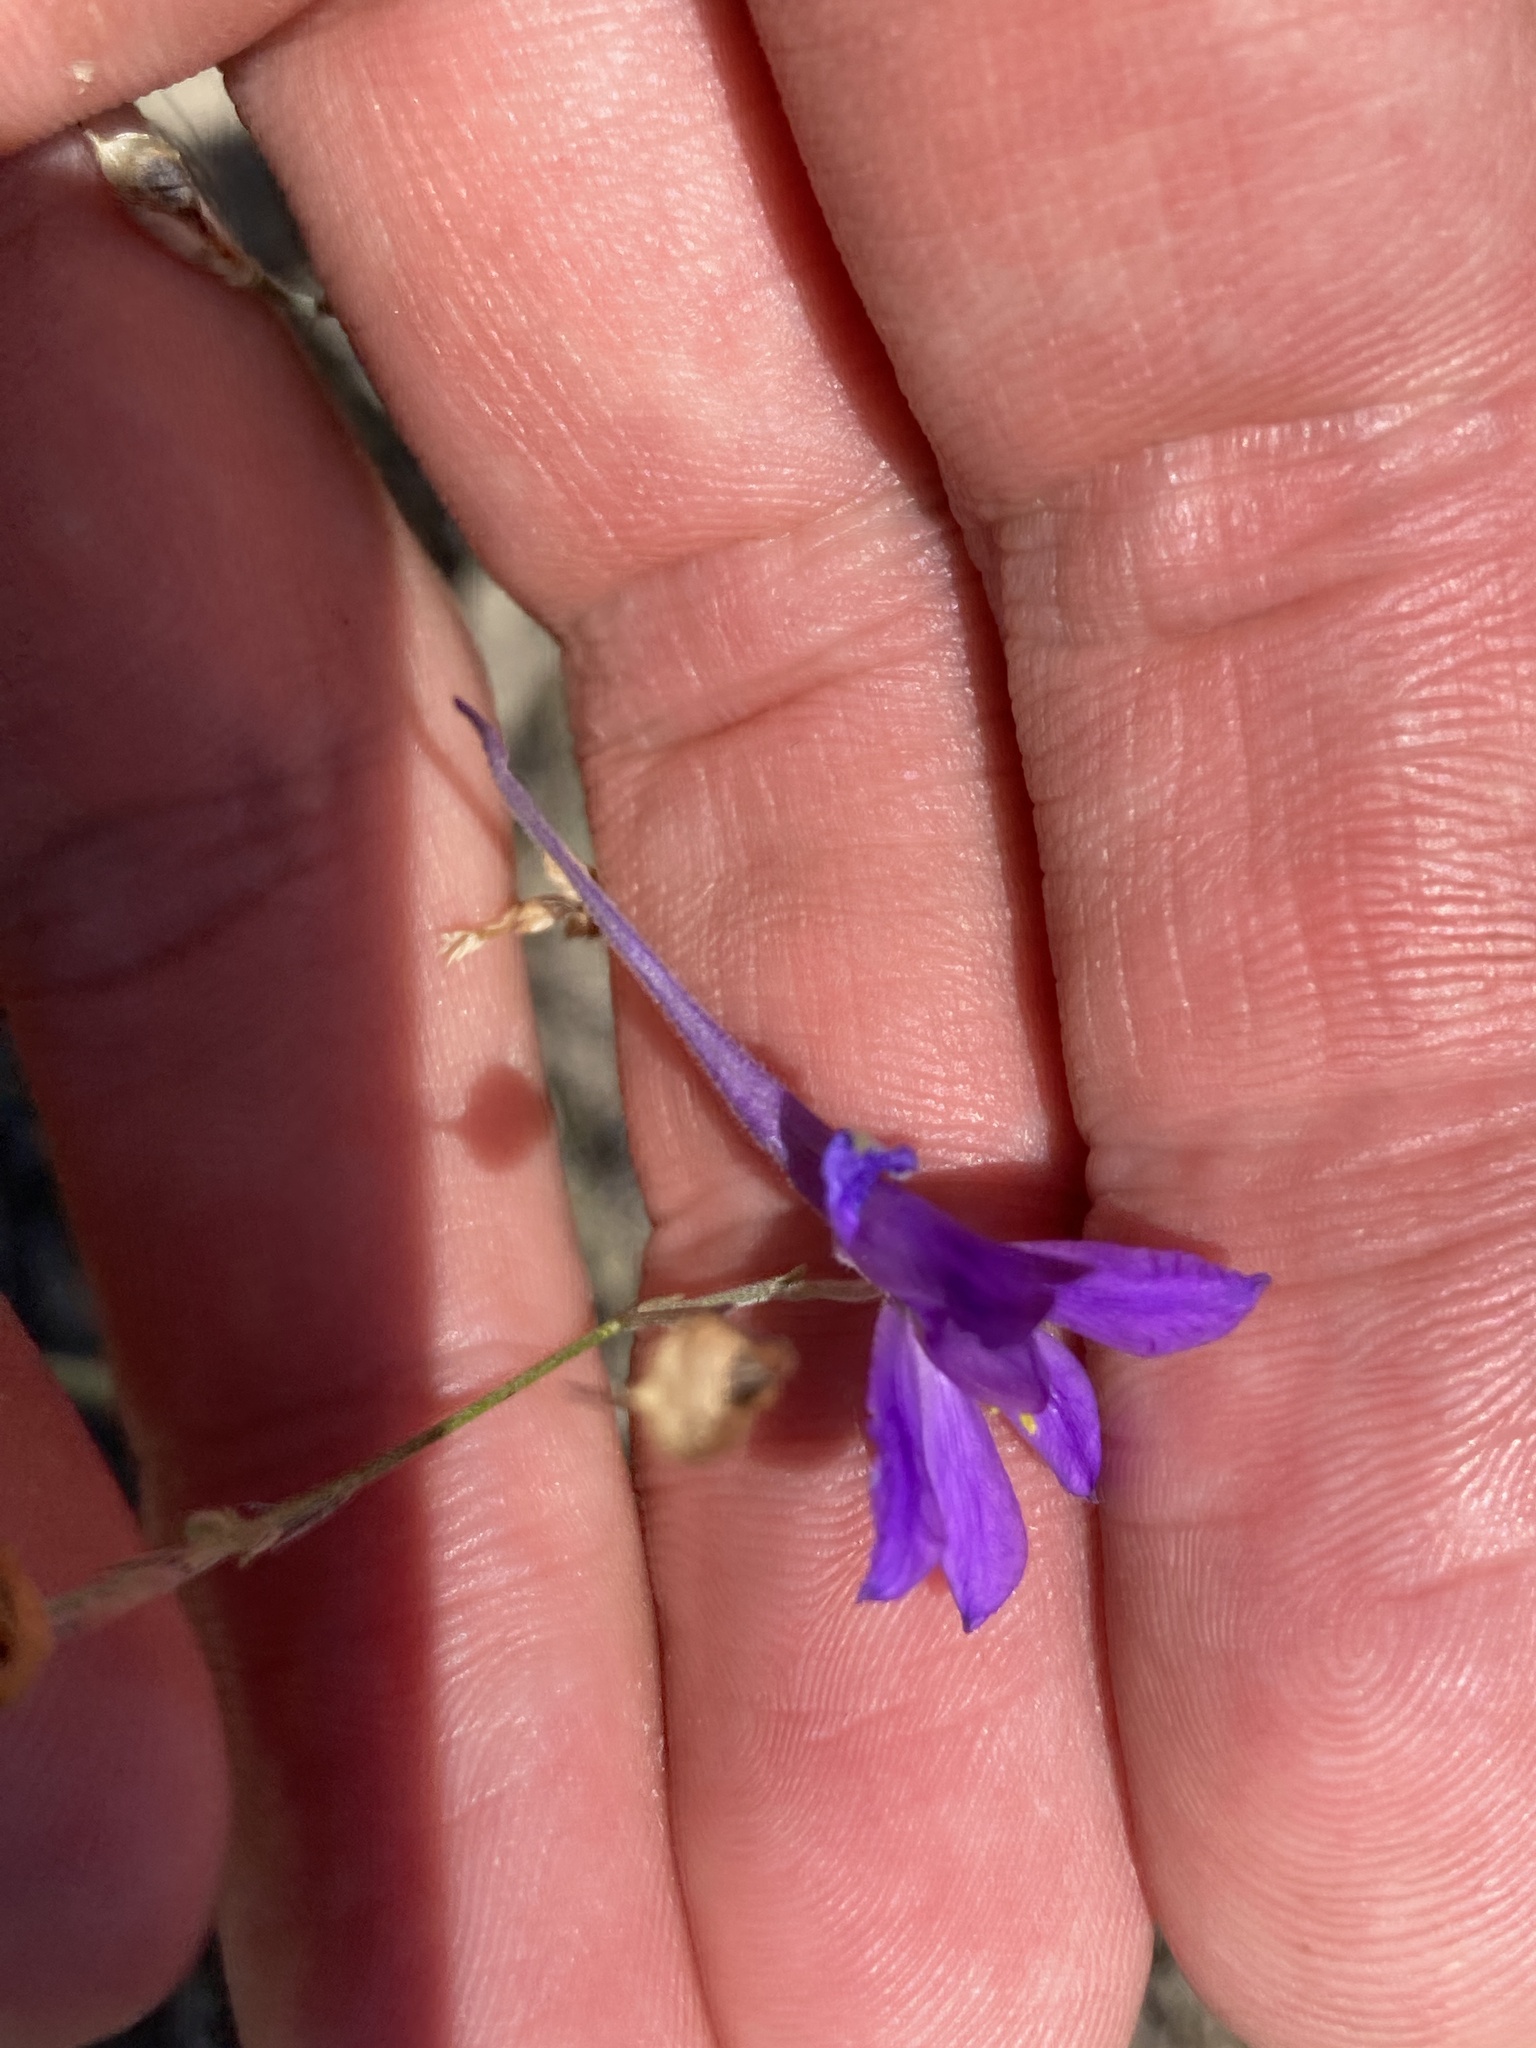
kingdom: Plantae
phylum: Tracheophyta
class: Magnoliopsida
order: Ranunculales
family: Ranunculaceae
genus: Delphinium
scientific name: Delphinium consolida
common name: Branching larkspur
